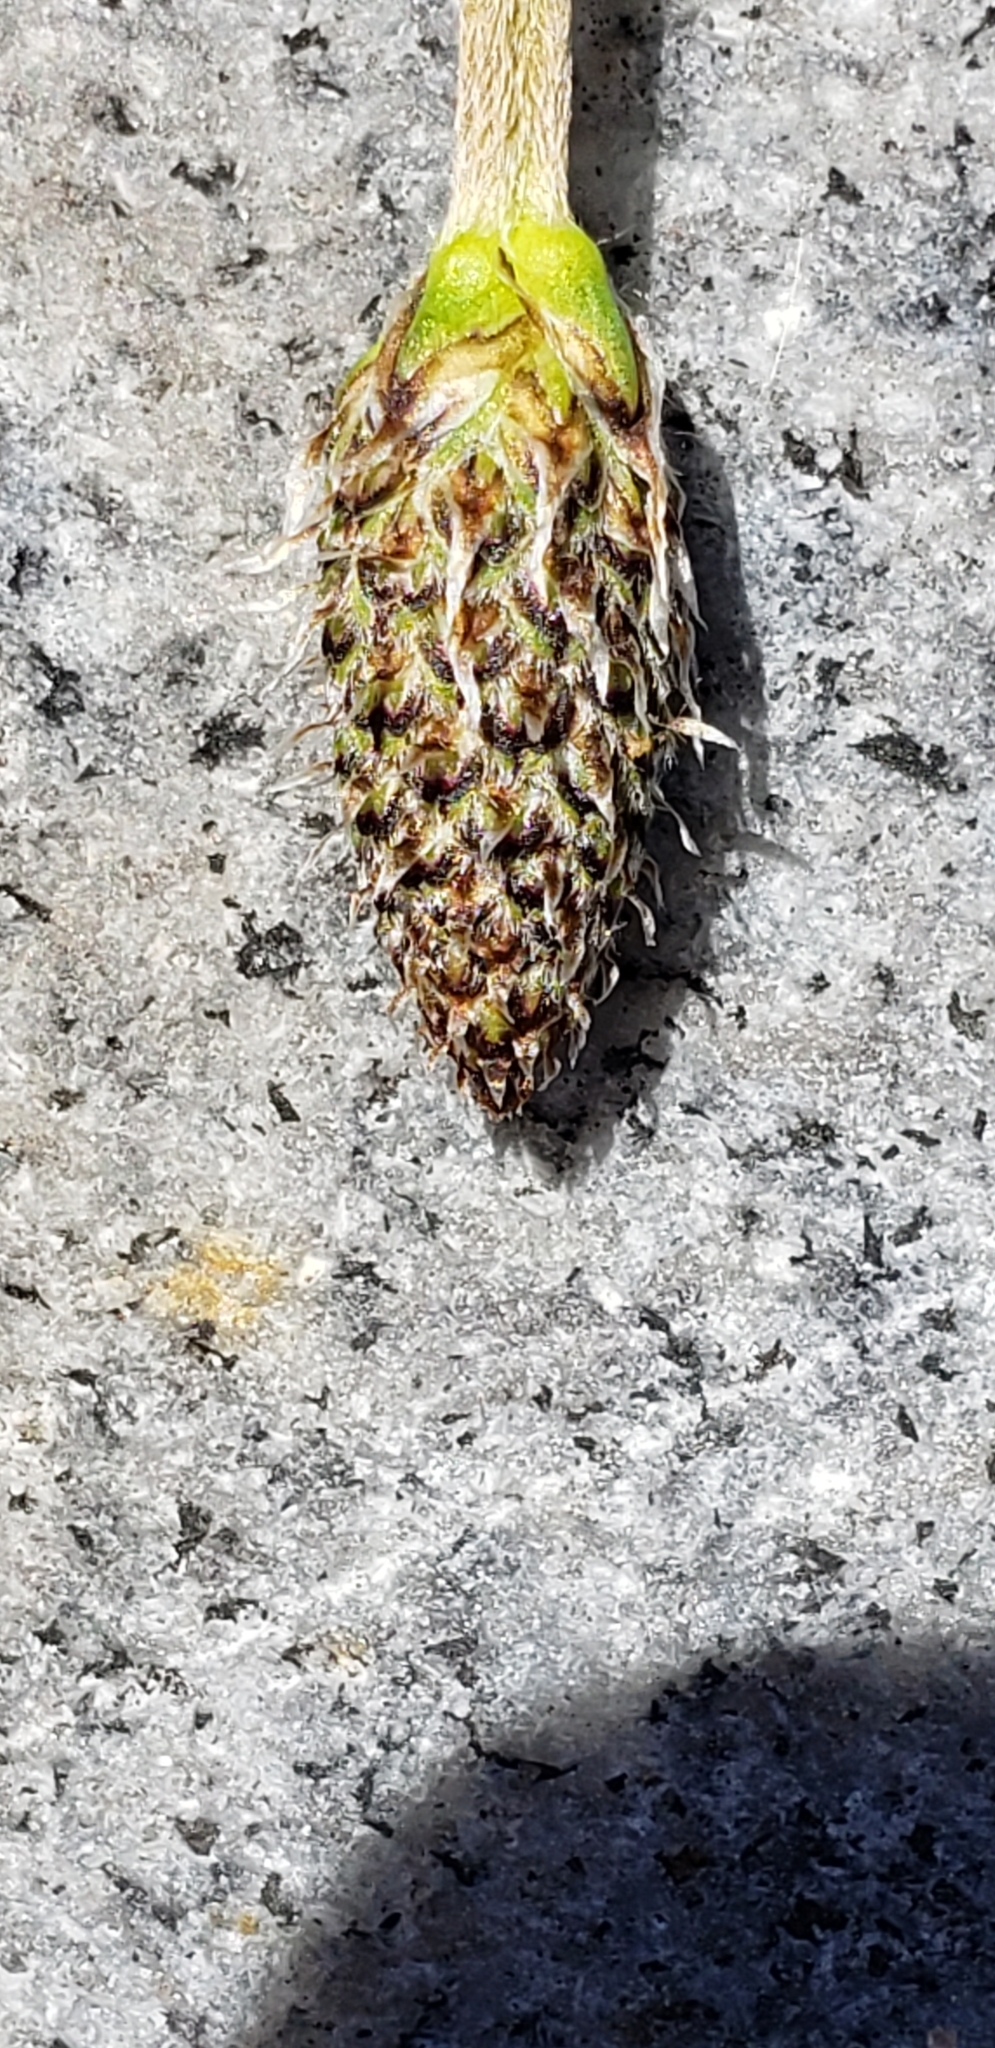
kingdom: Plantae
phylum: Tracheophyta
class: Magnoliopsida
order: Lamiales
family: Plantaginaceae
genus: Plantago
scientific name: Plantago lanceolata
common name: Ribwort plantain
